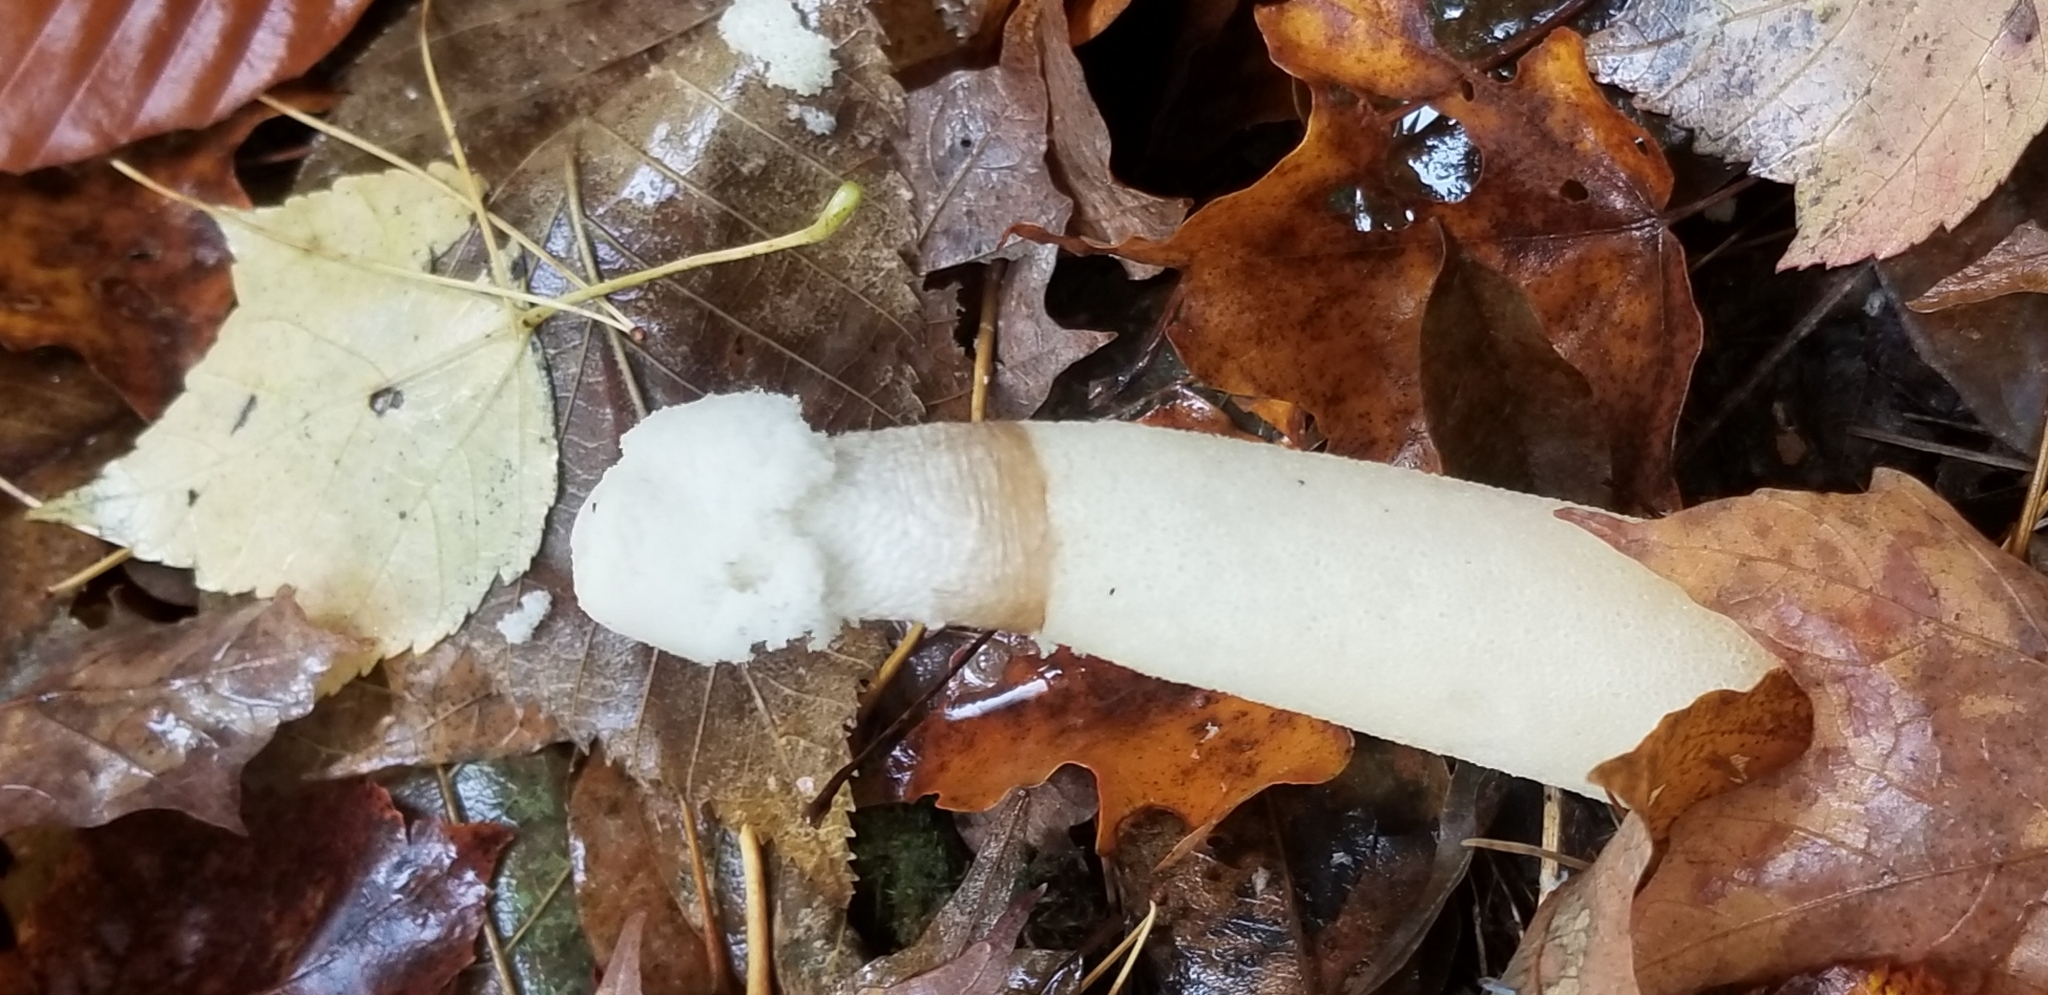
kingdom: Fungi
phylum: Basidiomycota
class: Agaricomycetes
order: Phallales
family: Phallaceae
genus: Phallus
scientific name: Phallus ravenelii
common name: Ravenel's stinkhorn
